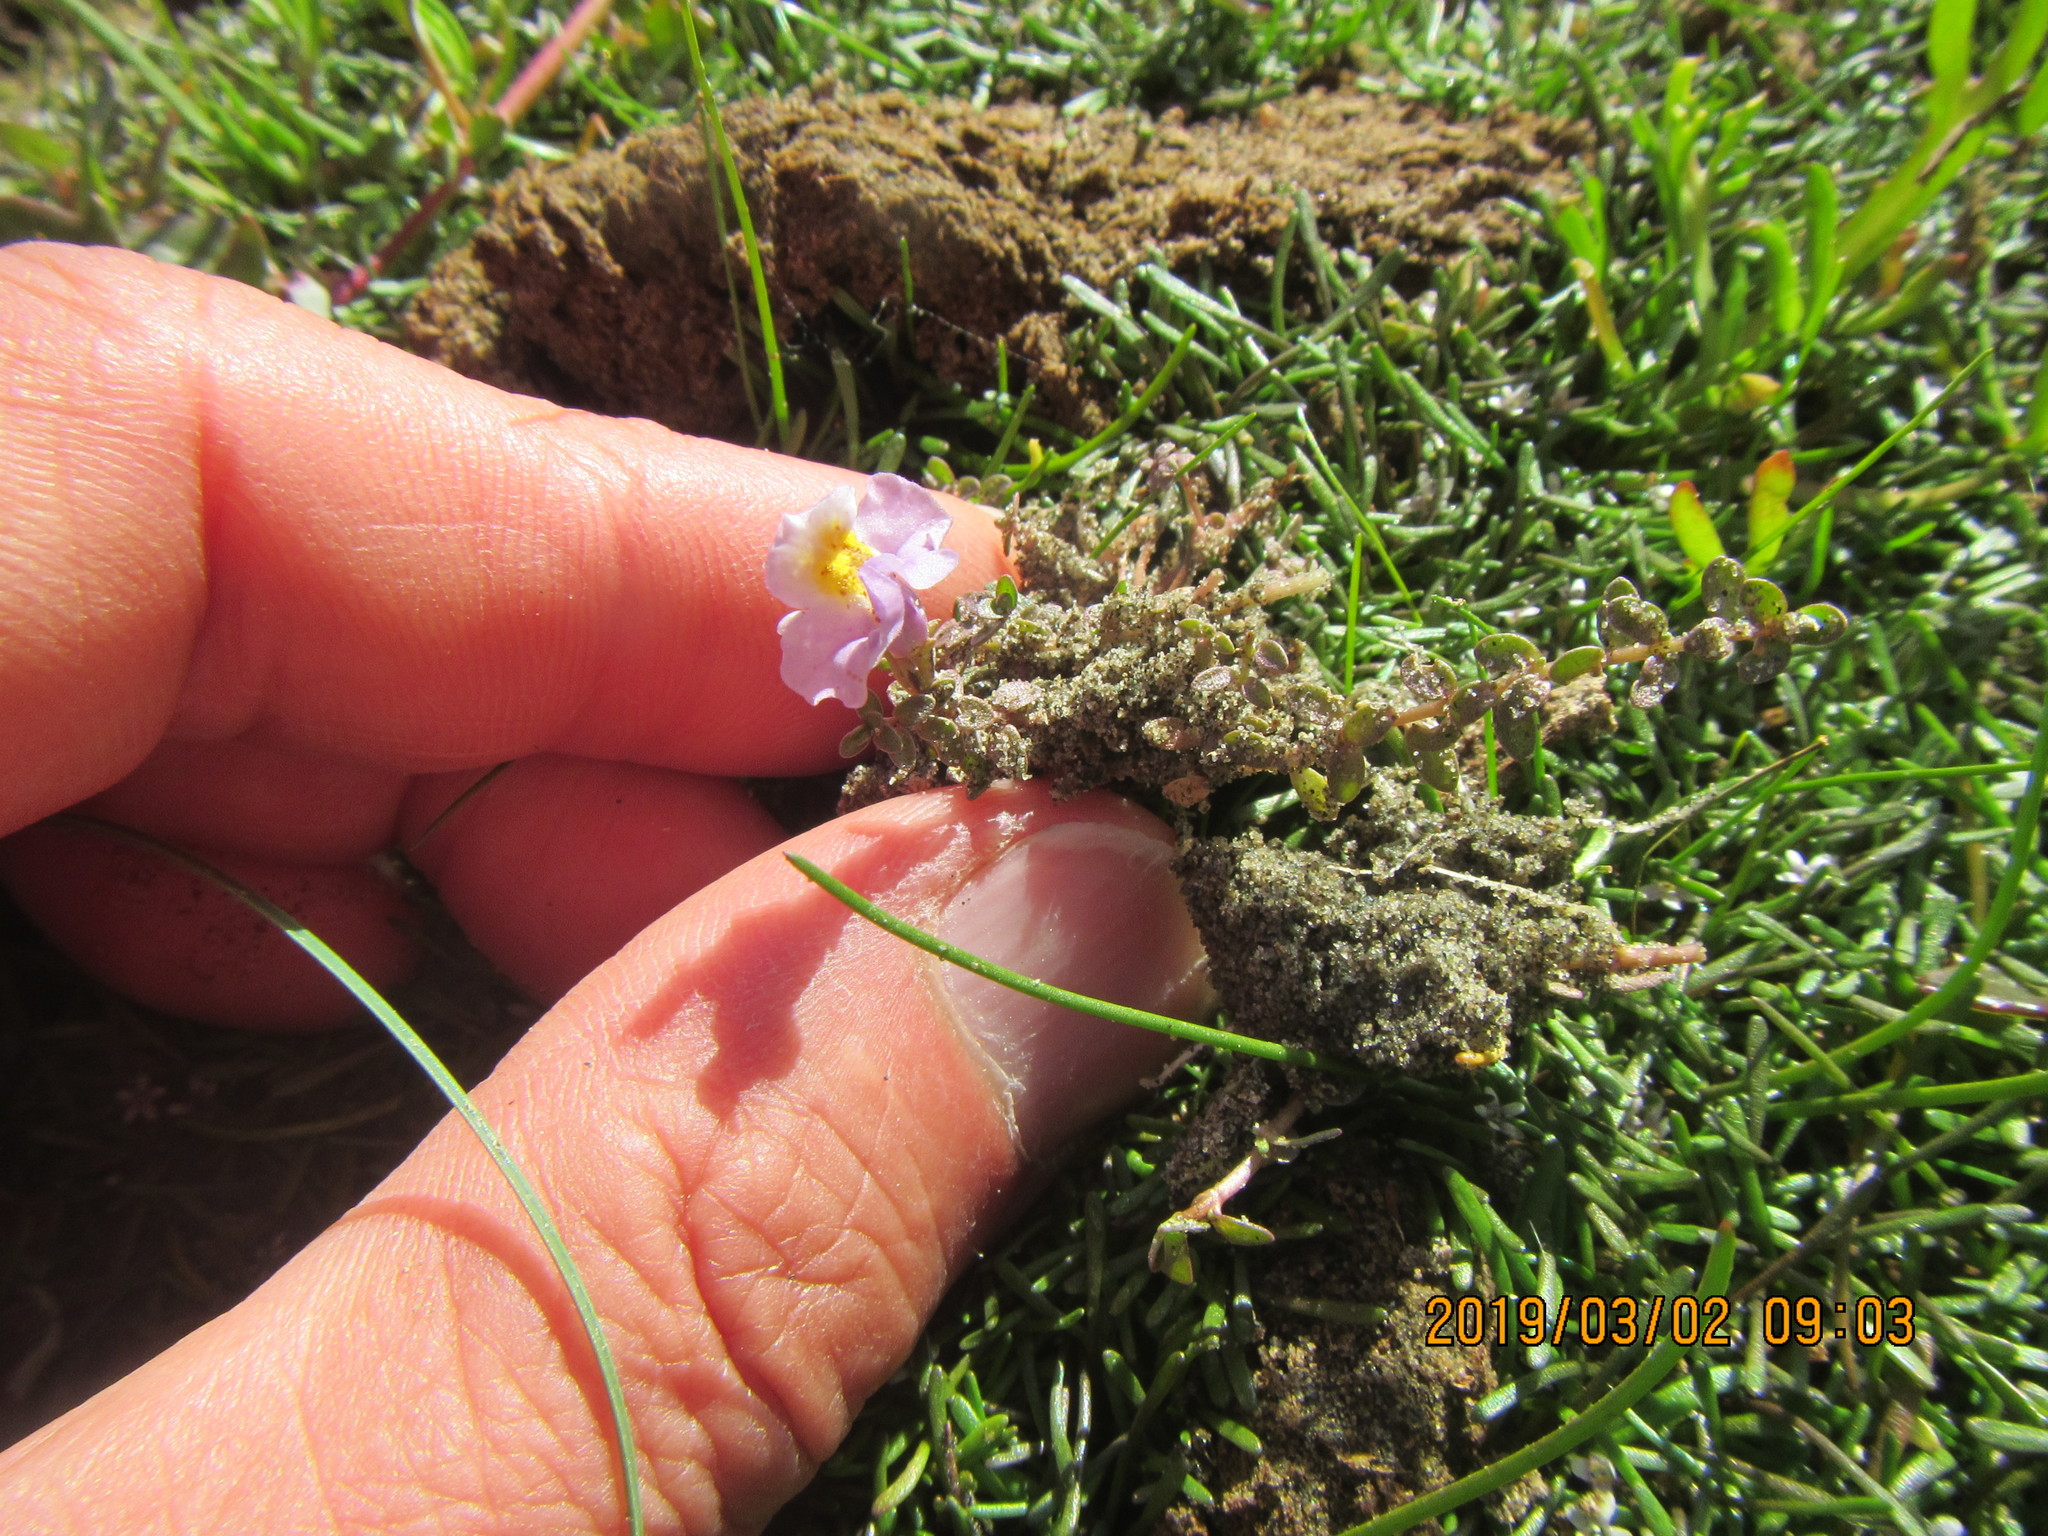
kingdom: Plantae
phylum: Tracheophyta
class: Magnoliopsida
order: Lamiales
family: Phrymaceae
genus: Thyridia
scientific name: Thyridia repens
